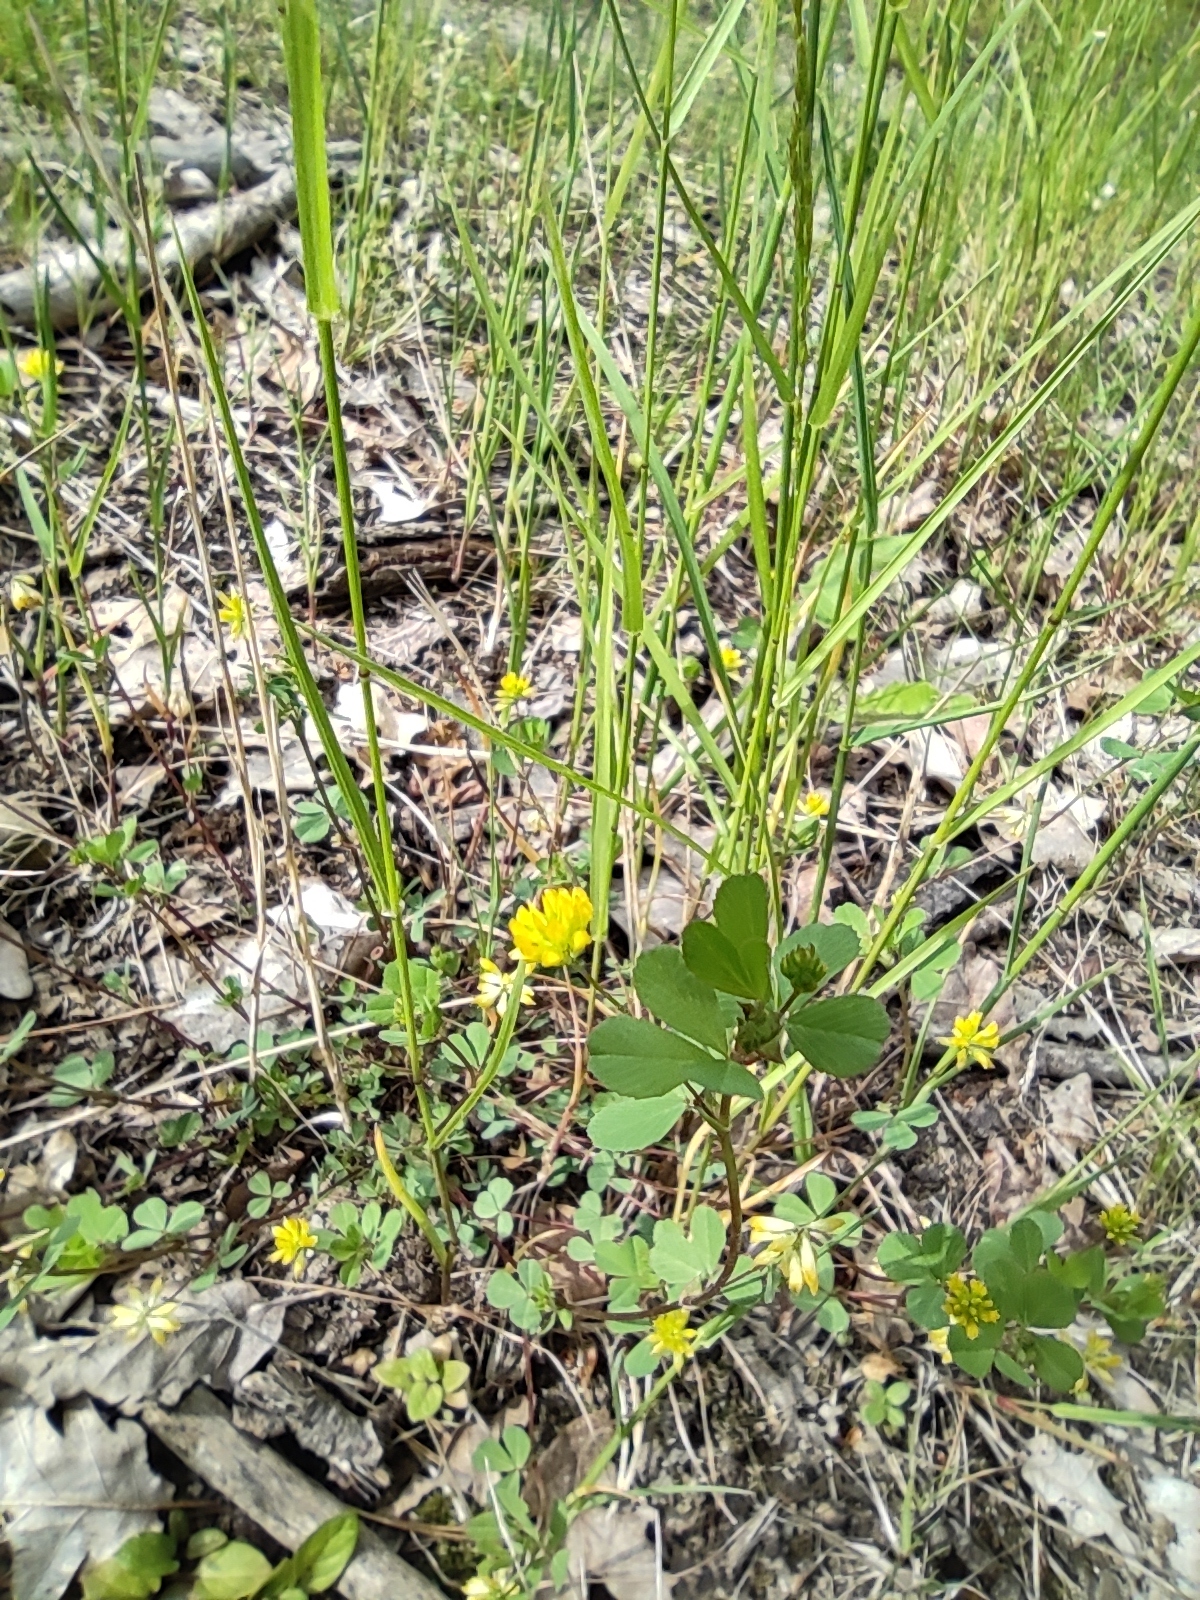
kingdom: Plantae
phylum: Tracheophyta
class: Magnoliopsida
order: Fabales
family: Fabaceae
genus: Trifolium
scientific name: Trifolium dubium
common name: Suckling clover
